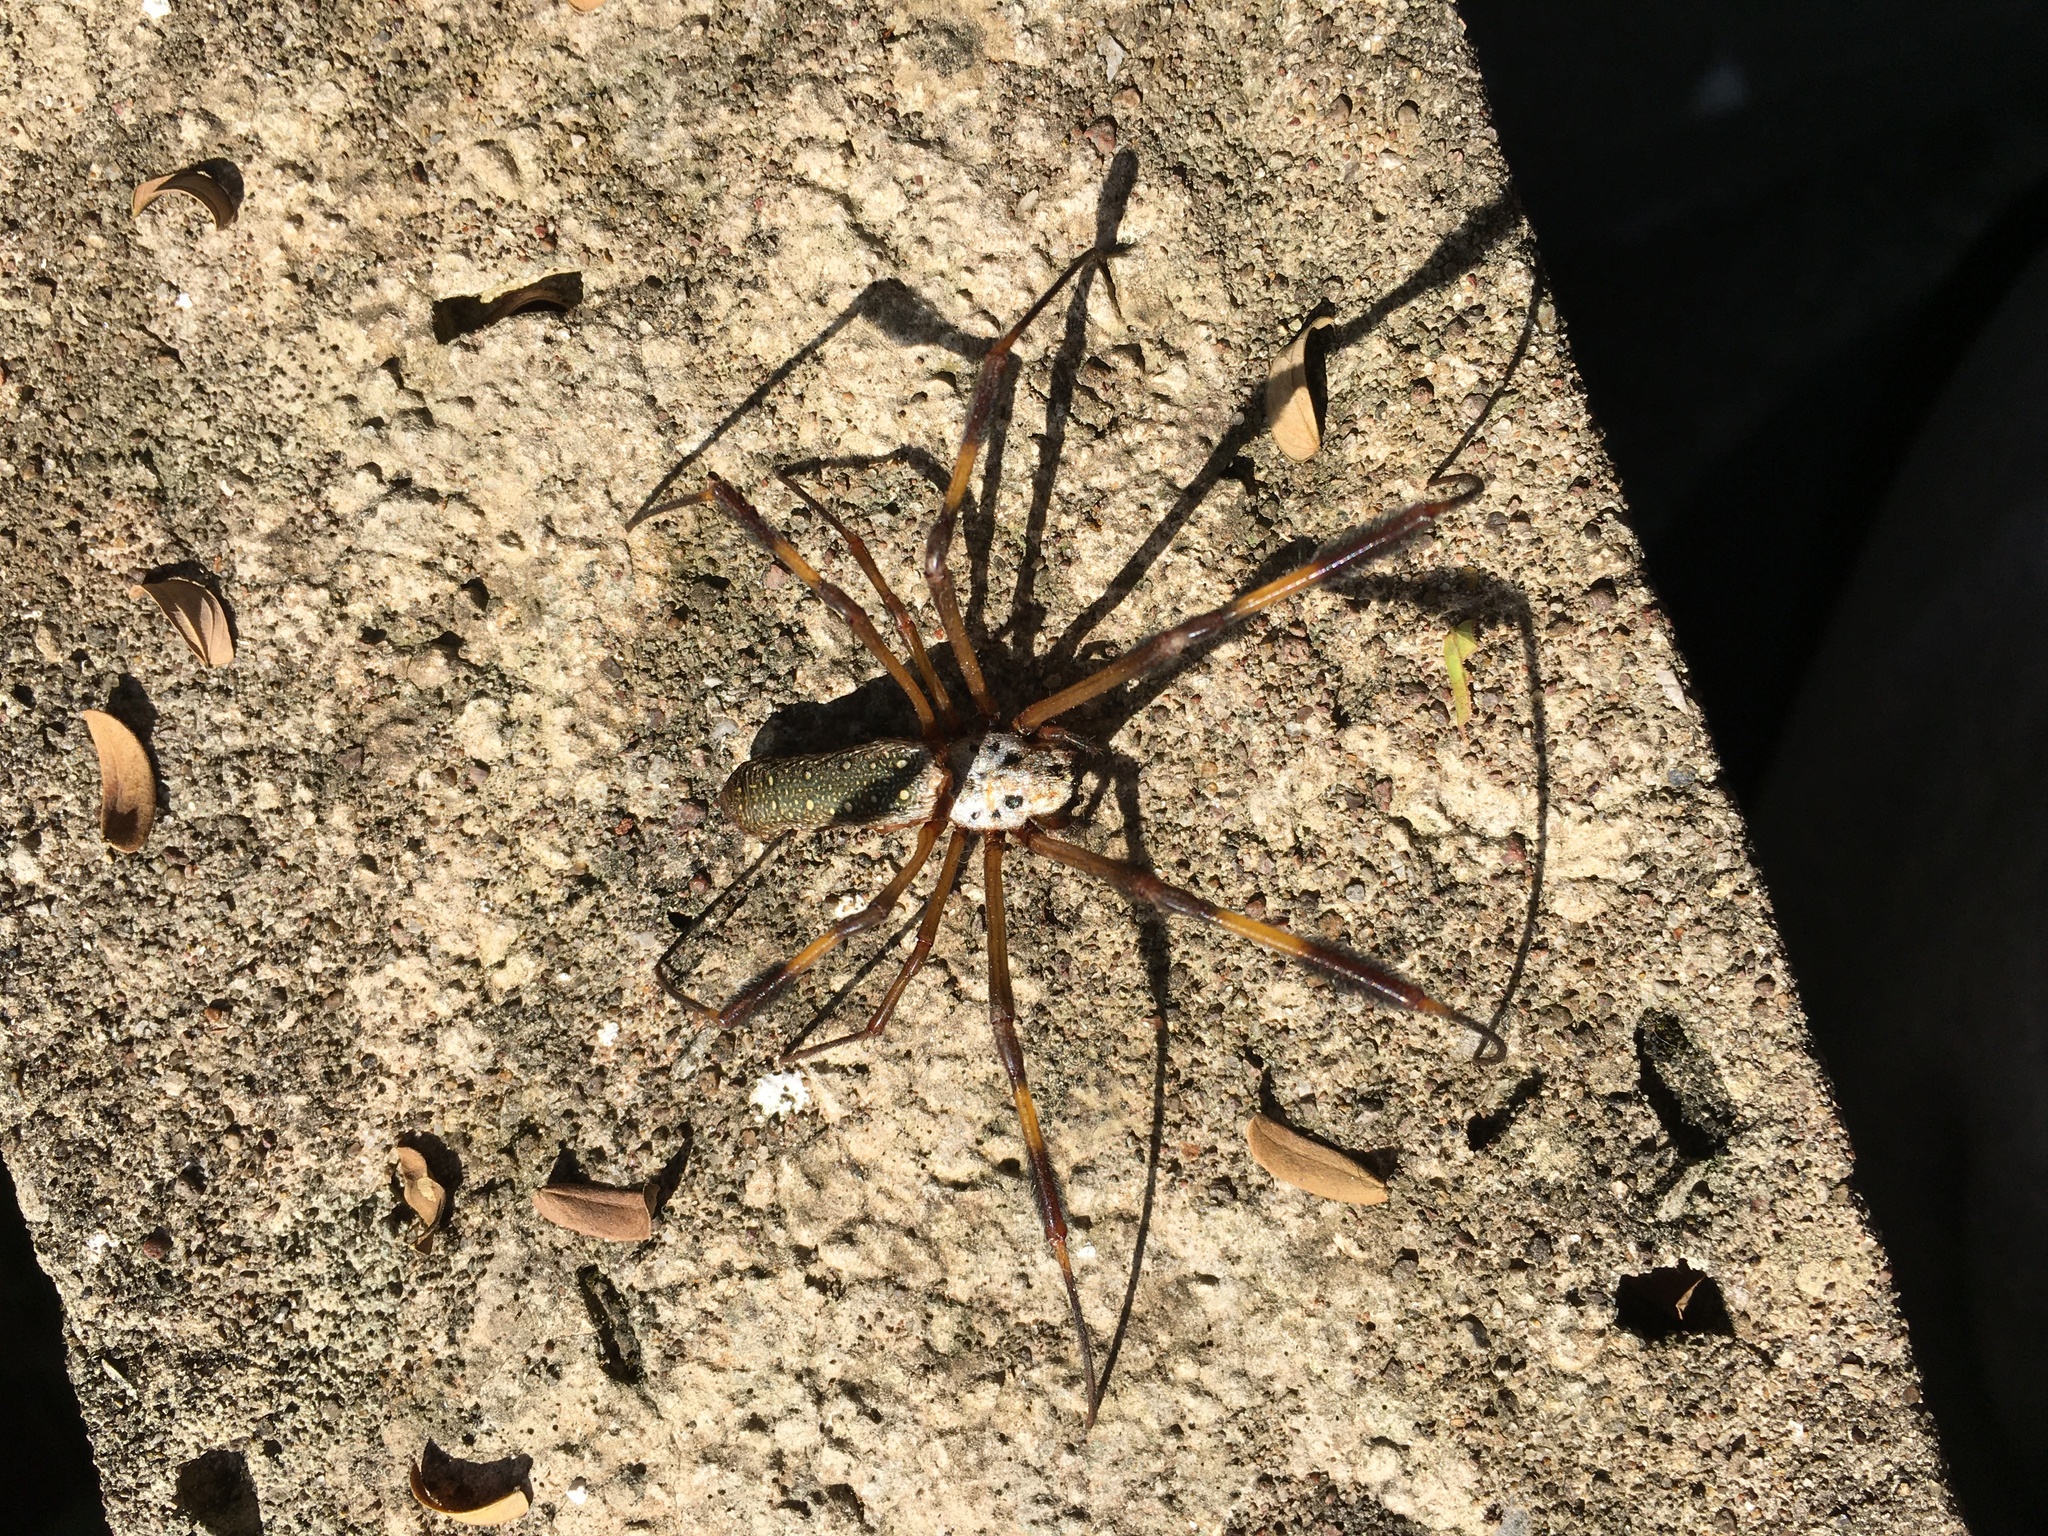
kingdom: Animalia
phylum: Arthropoda
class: Arachnida
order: Araneae
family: Araneidae
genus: Trichonephila
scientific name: Trichonephila clavipes
